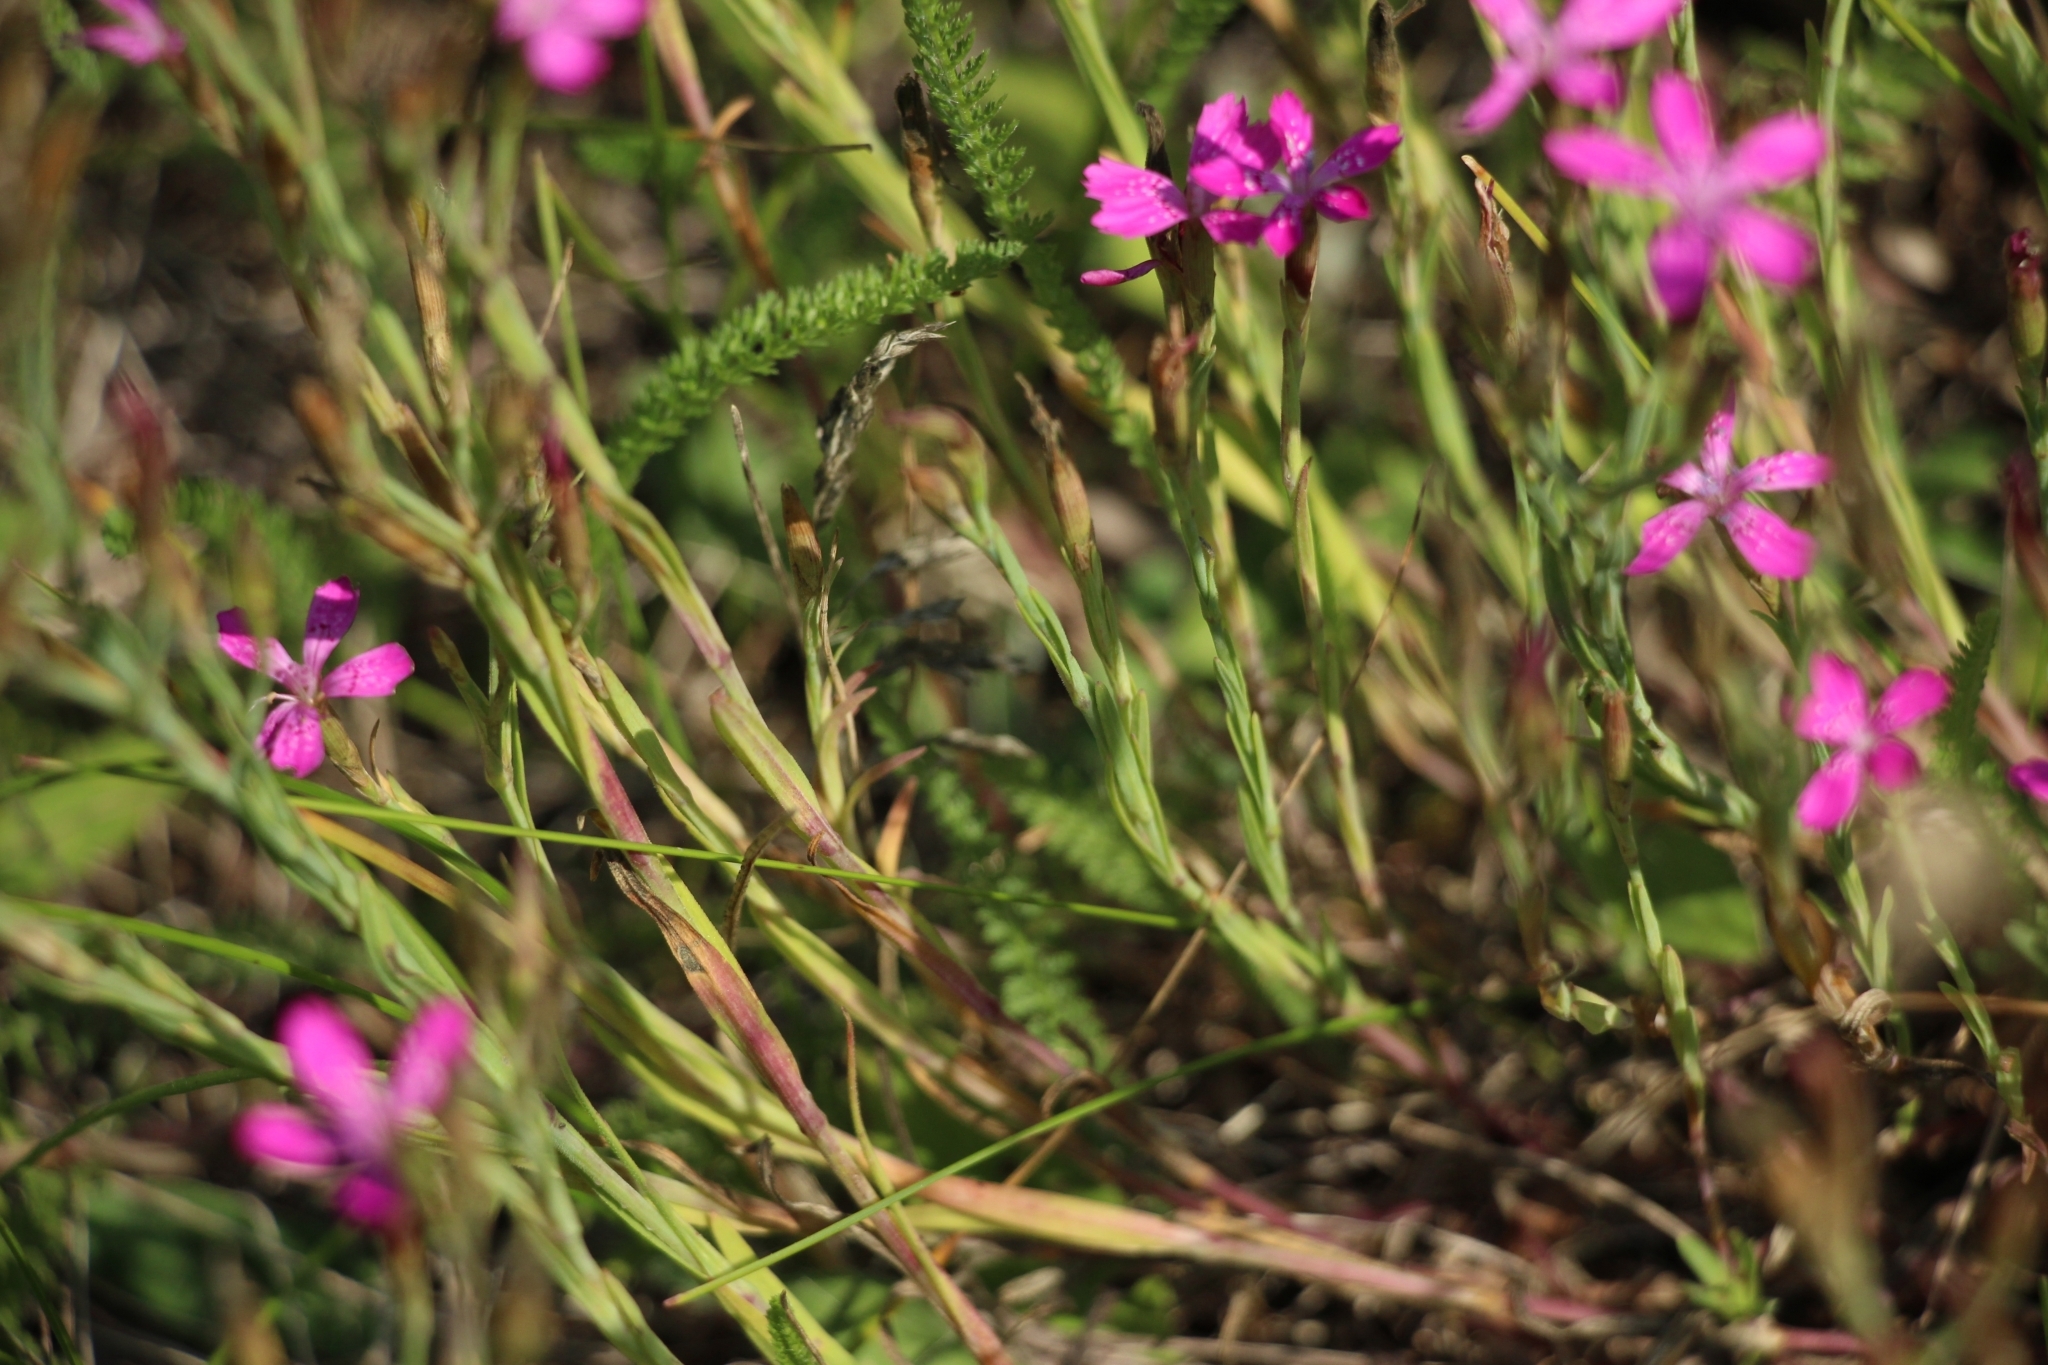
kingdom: Plantae
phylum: Tracheophyta
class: Magnoliopsida
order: Caryophyllales
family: Caryophyllaceae
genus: Dianthus
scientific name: Dianthus deltoides
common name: Maiden pink
